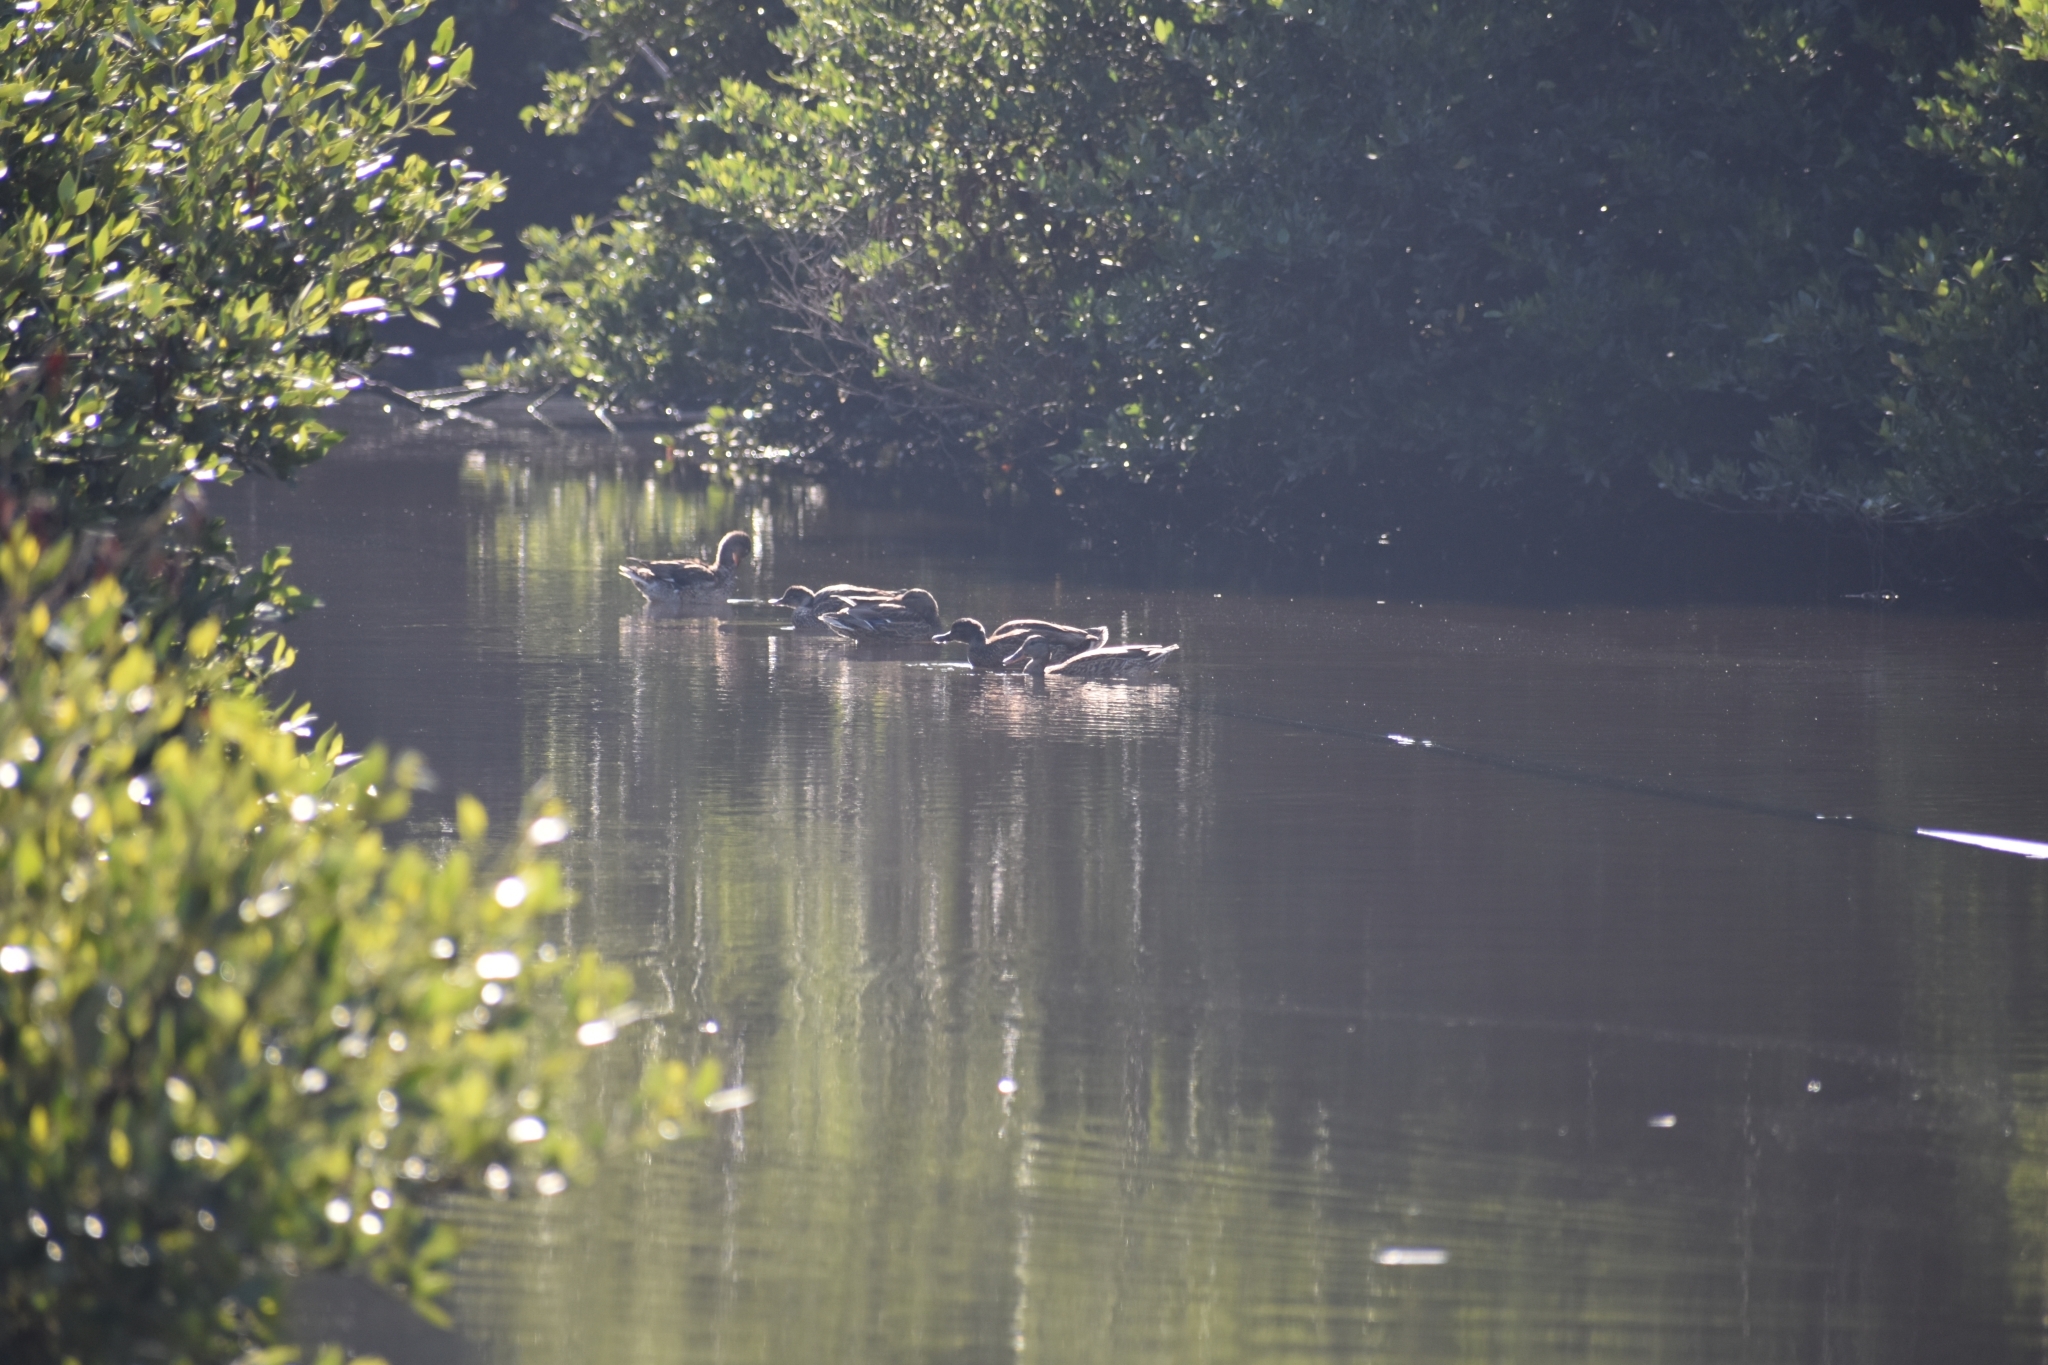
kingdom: Animalia
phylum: Chordata
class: Aves
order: Anseriformes
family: Anatidae
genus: Anas
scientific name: Anas platyrhynchos
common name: Mallard
